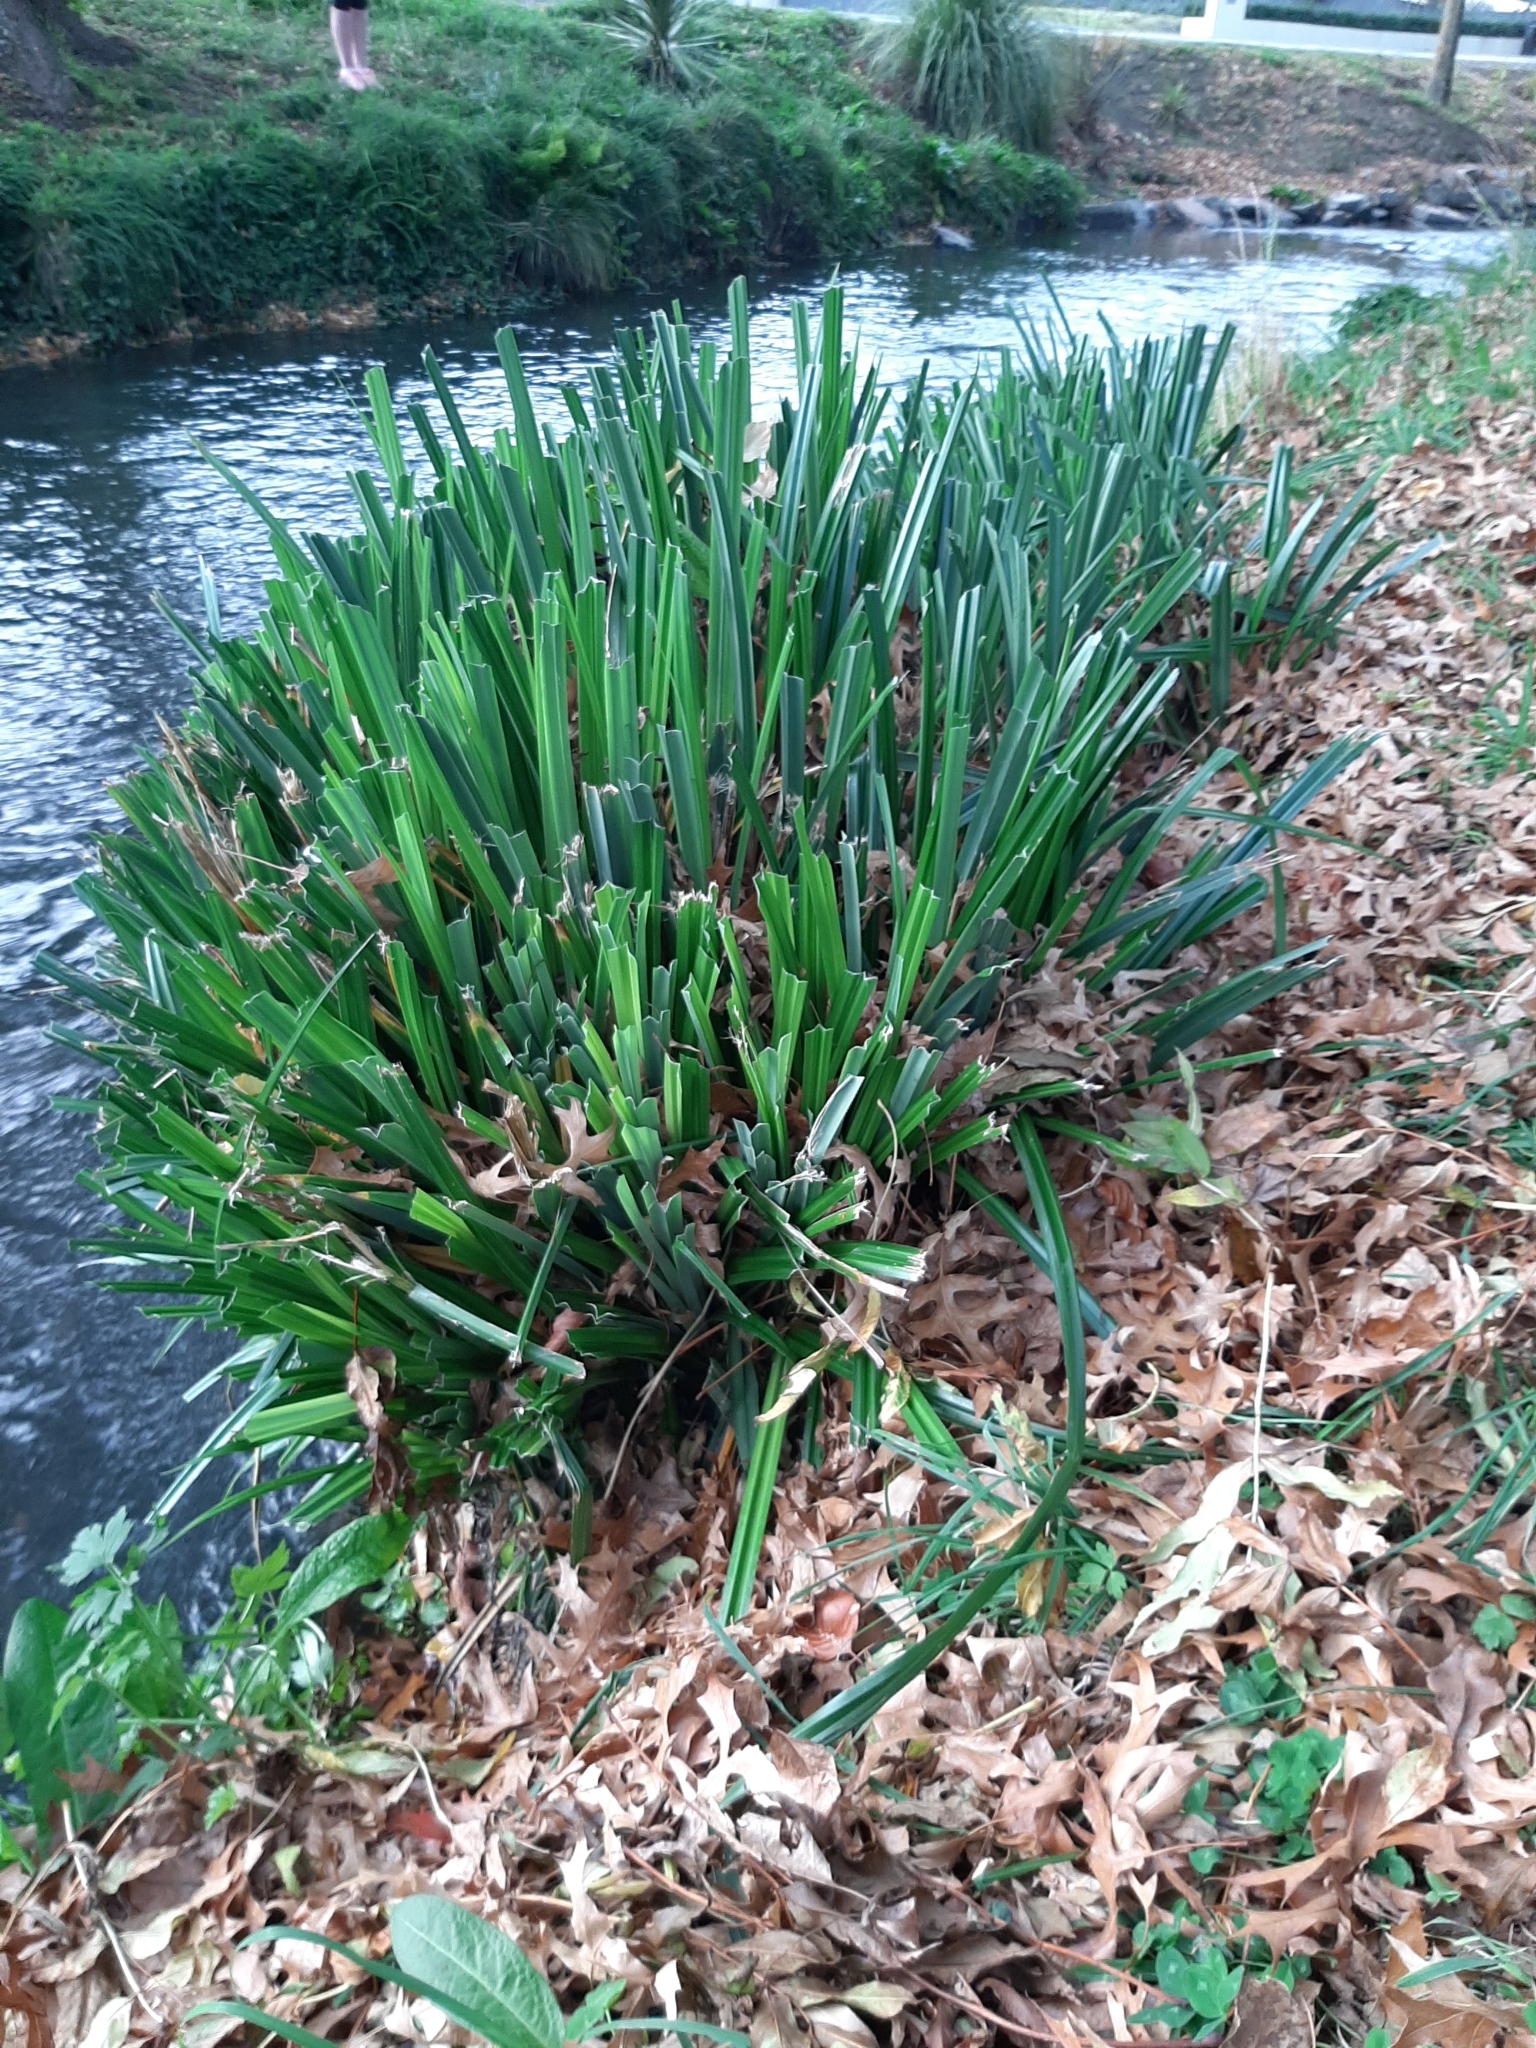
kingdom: Plantae
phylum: Tracheophyta
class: Liliopsida
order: Poales
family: Cyperaceae
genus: Carex
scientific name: Carex pendula
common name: Pendulous sedge
